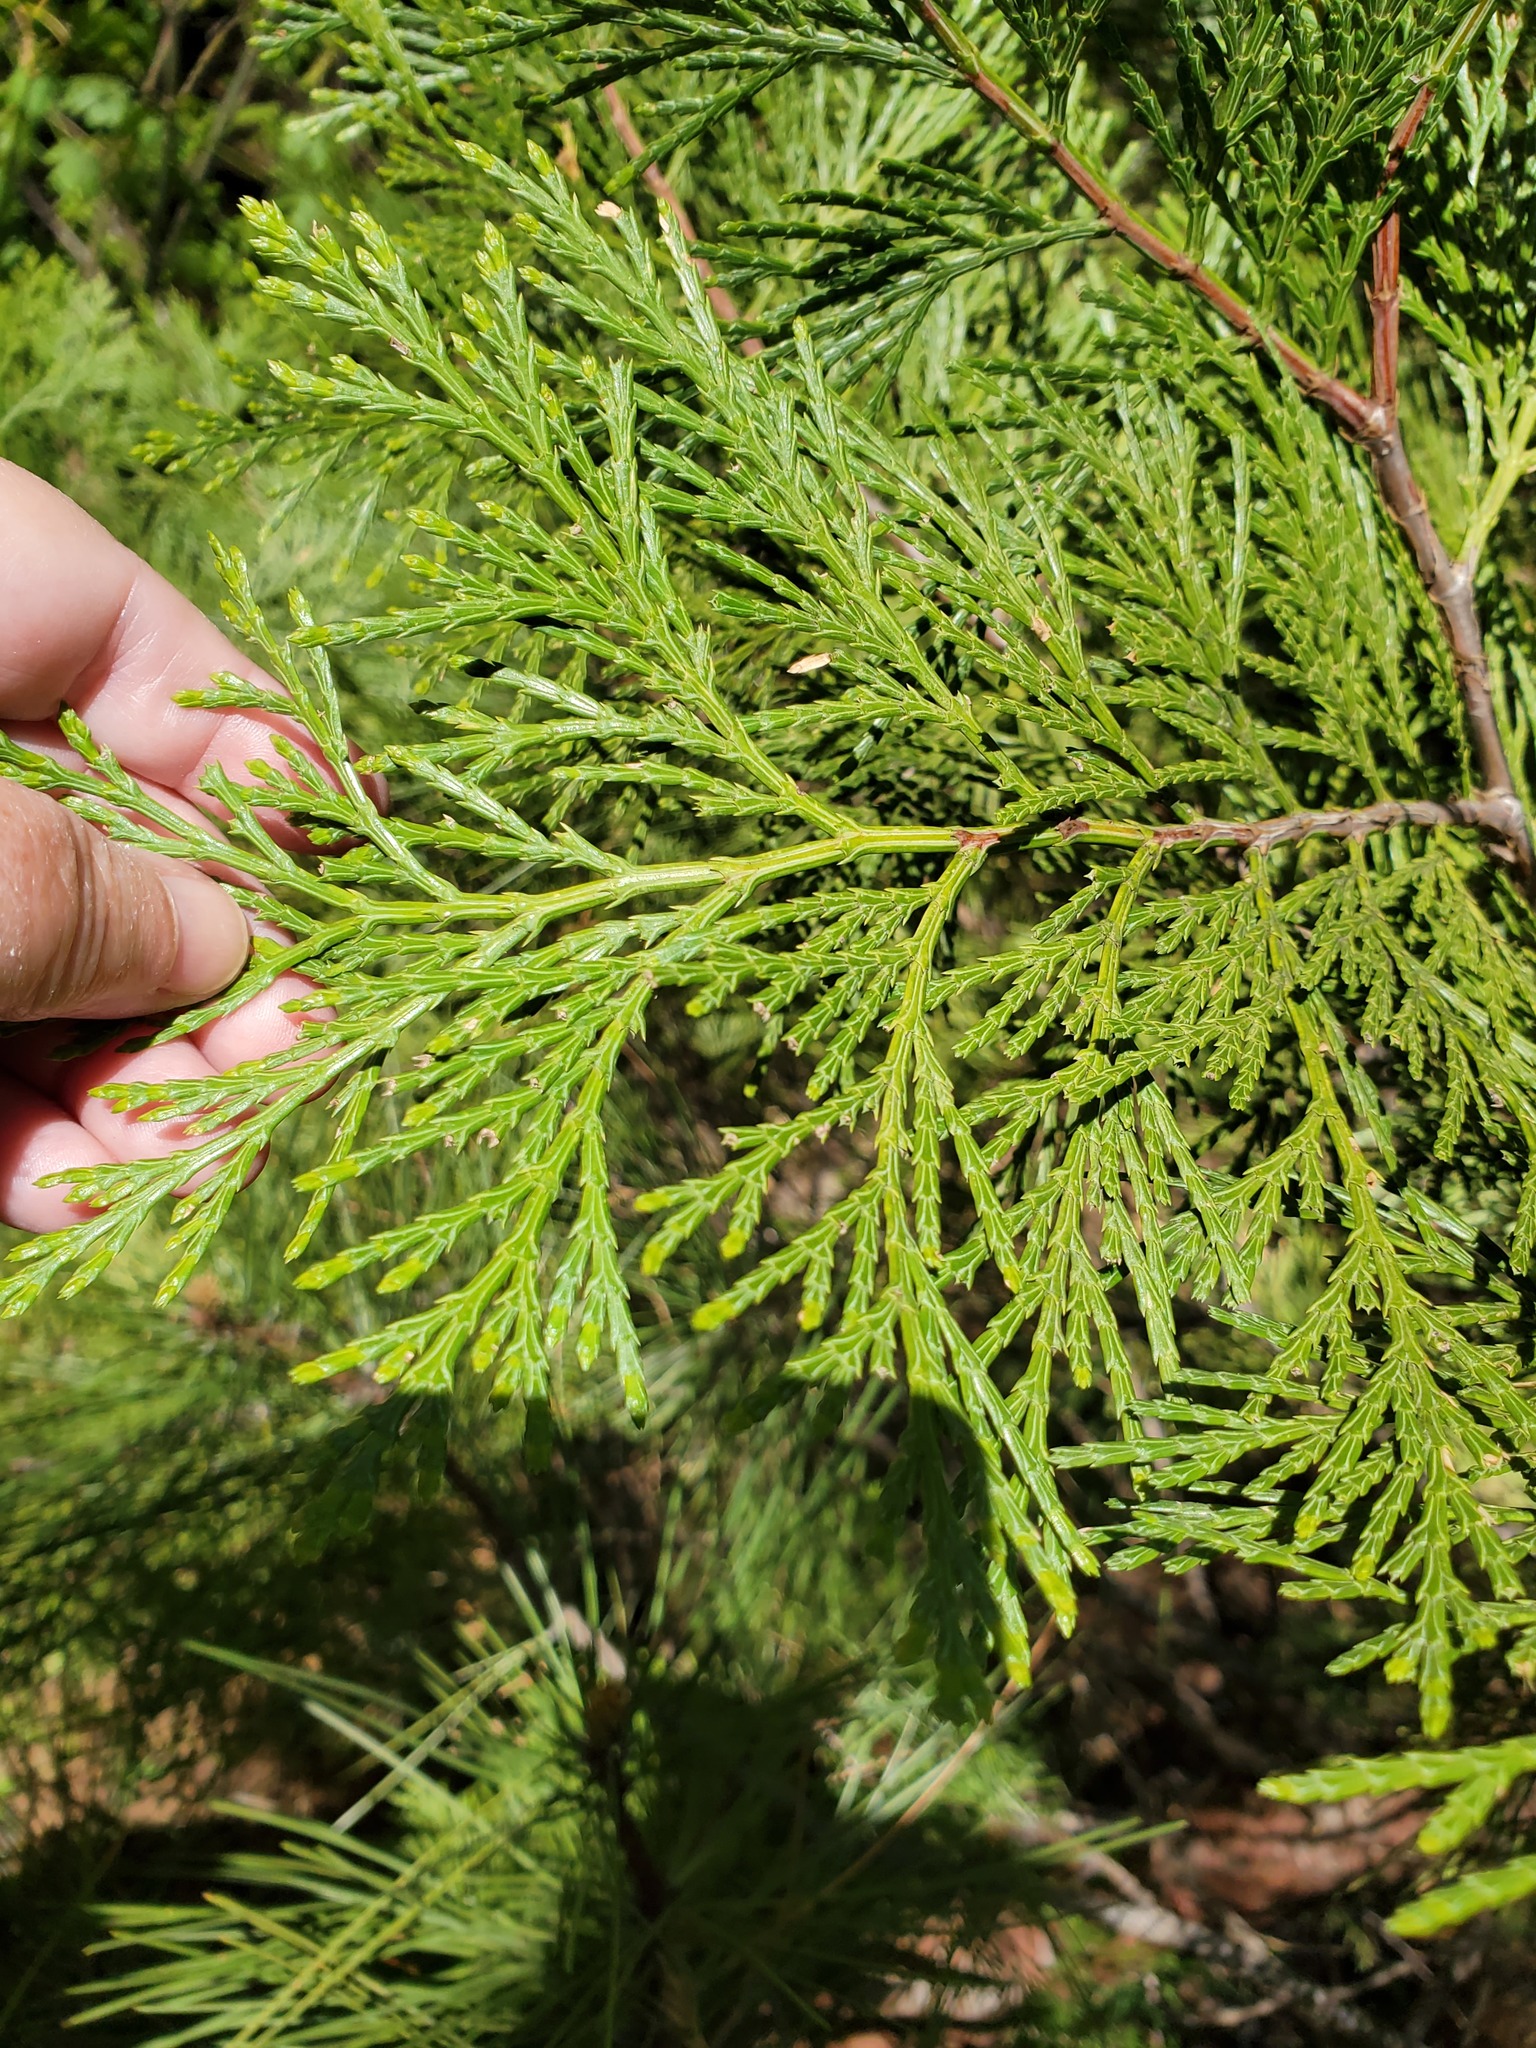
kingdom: Plantae
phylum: Tracheophyta
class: Pinopsida
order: Pinales
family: Cupressaceae
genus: Calocedrus
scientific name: Calocedrus decurrens
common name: Californian incense-cedar
